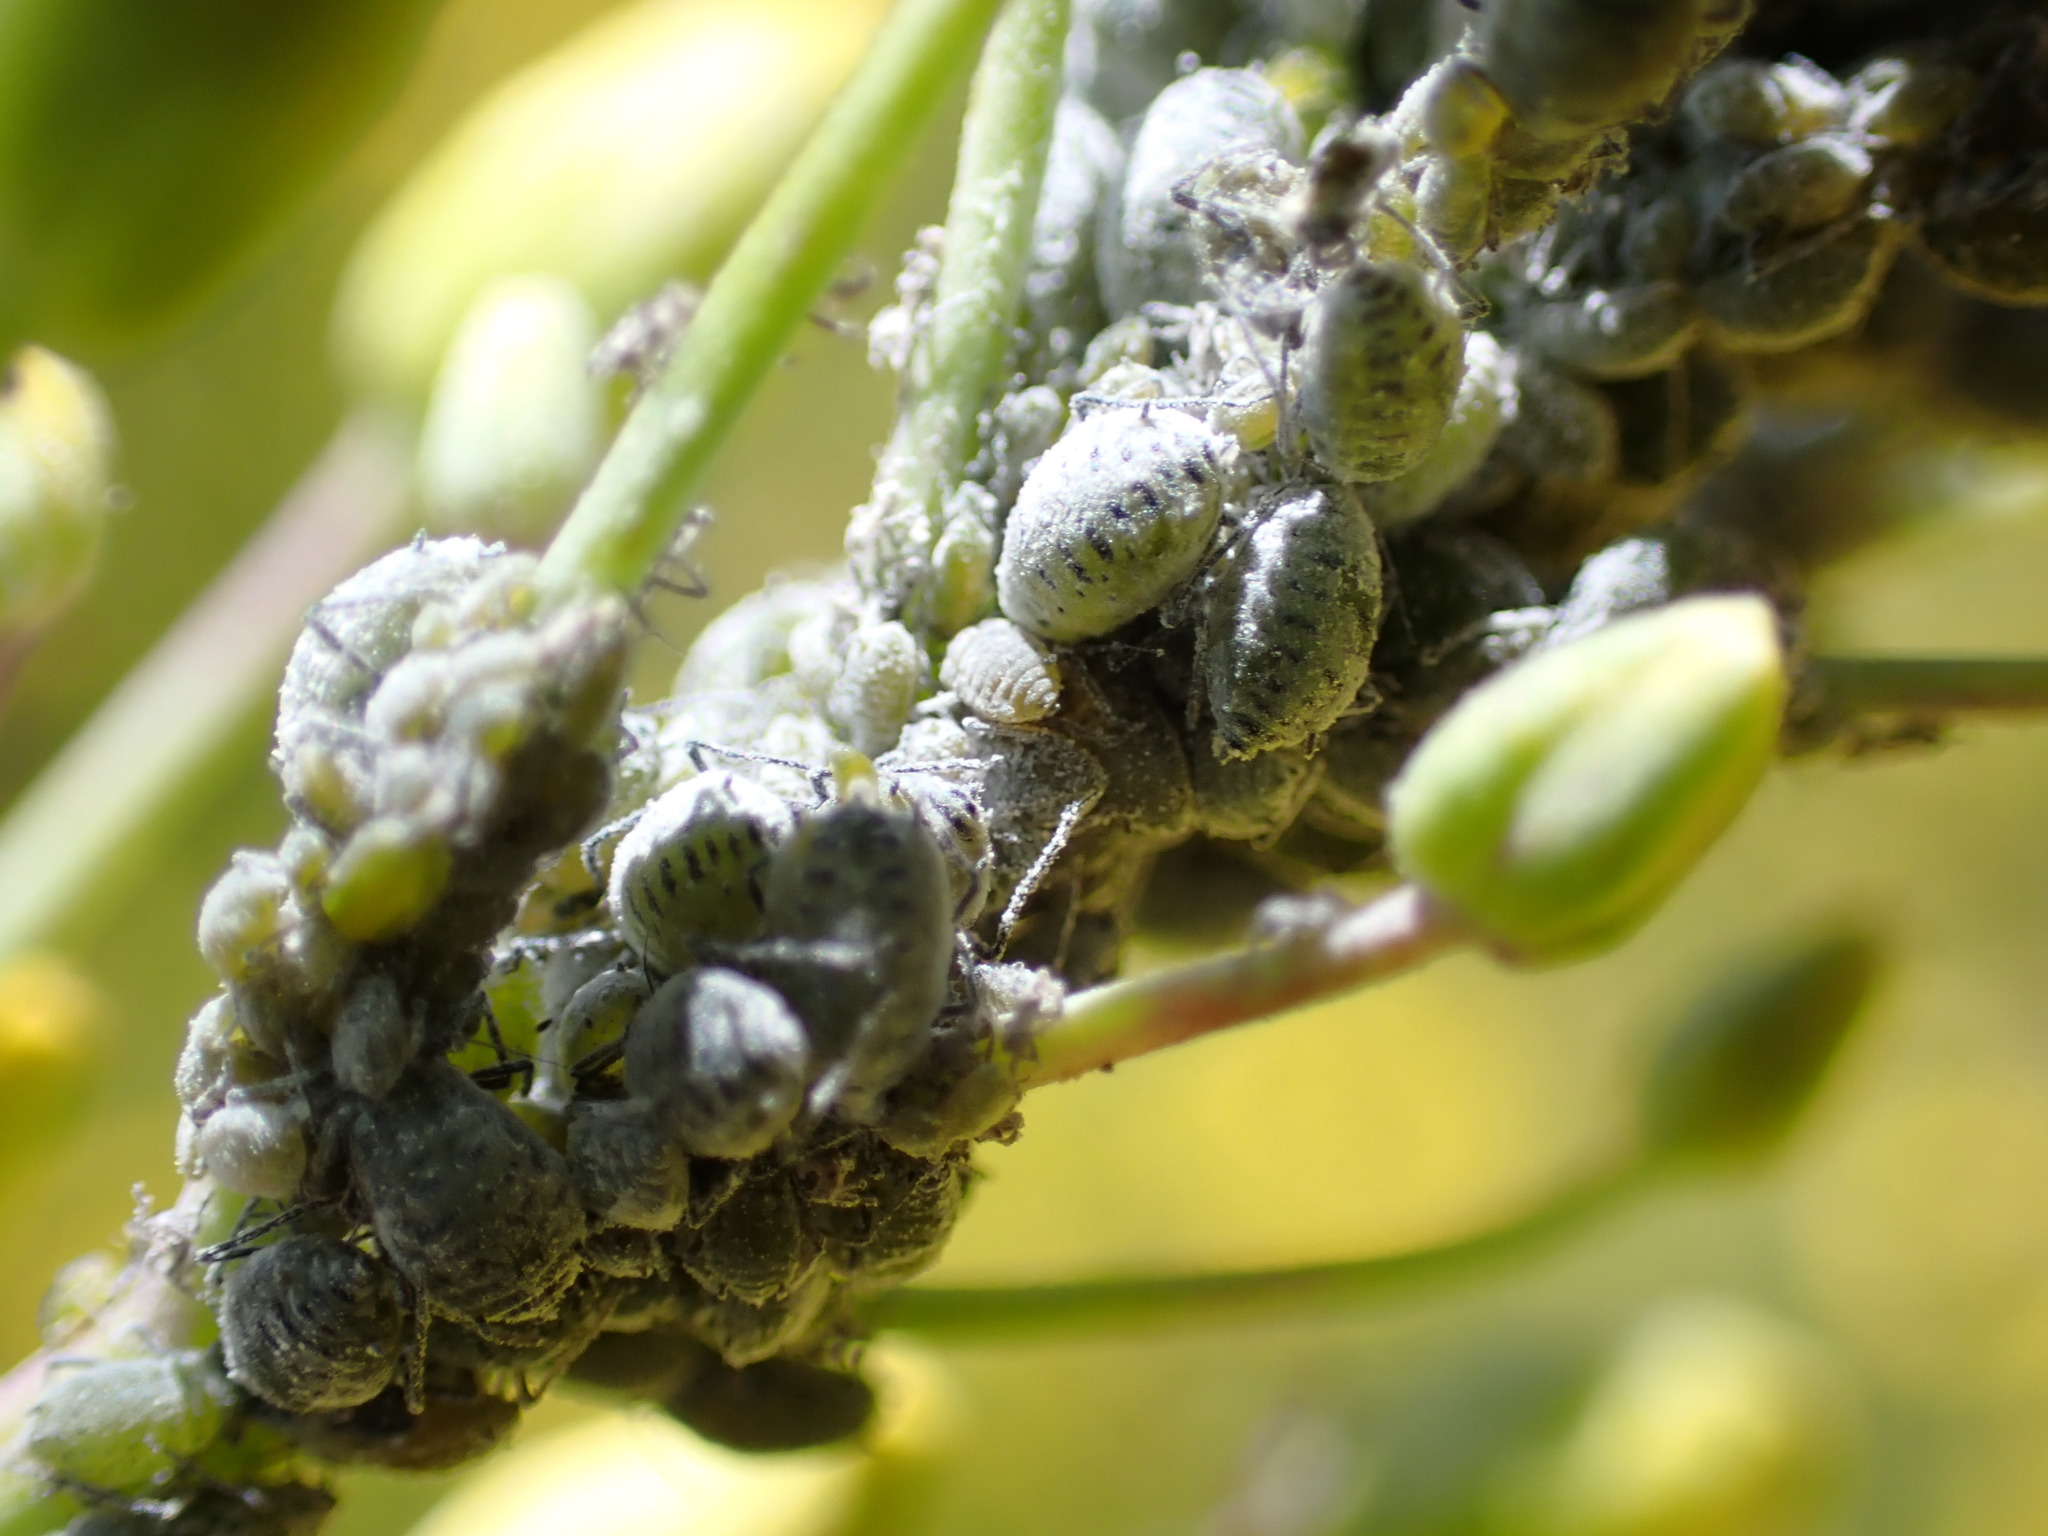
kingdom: Animalia
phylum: Arthropoda
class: Insecta
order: Hemiptera
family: Aphididae
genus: Brevicoryne
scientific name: Brevicoryne brassicae
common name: Cabbage aphid
